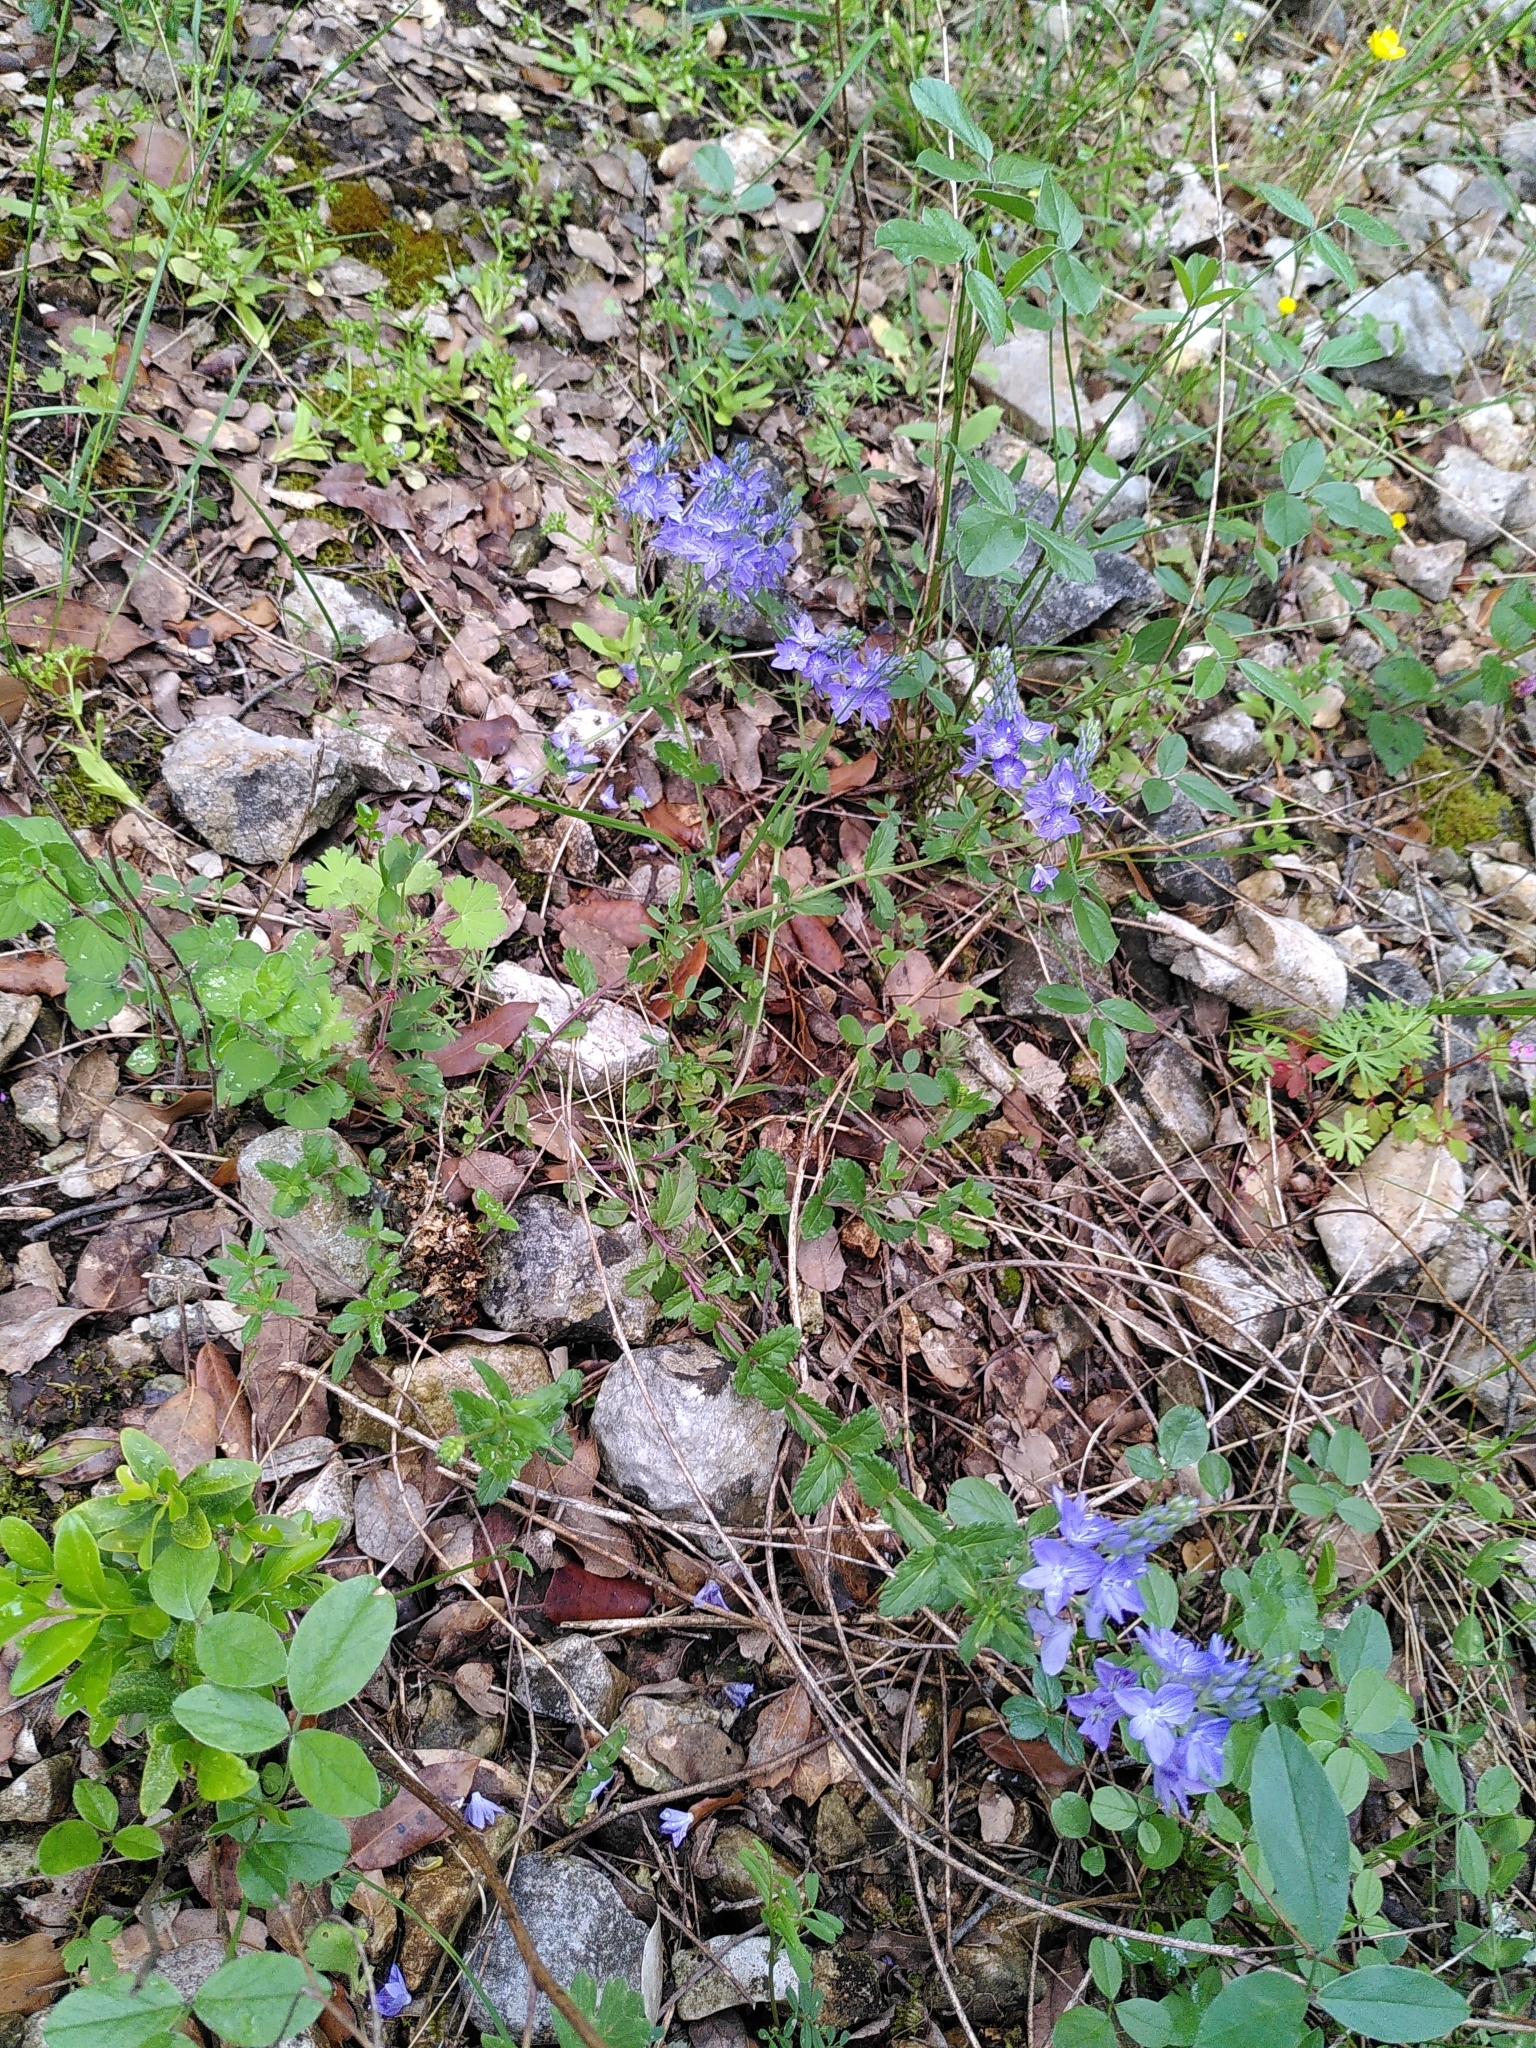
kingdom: Plantae
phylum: Tracheophyta
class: Magnoliopsida
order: Lamiales
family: Plantaginaceae
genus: Veronica
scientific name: Veronica orsiniana
